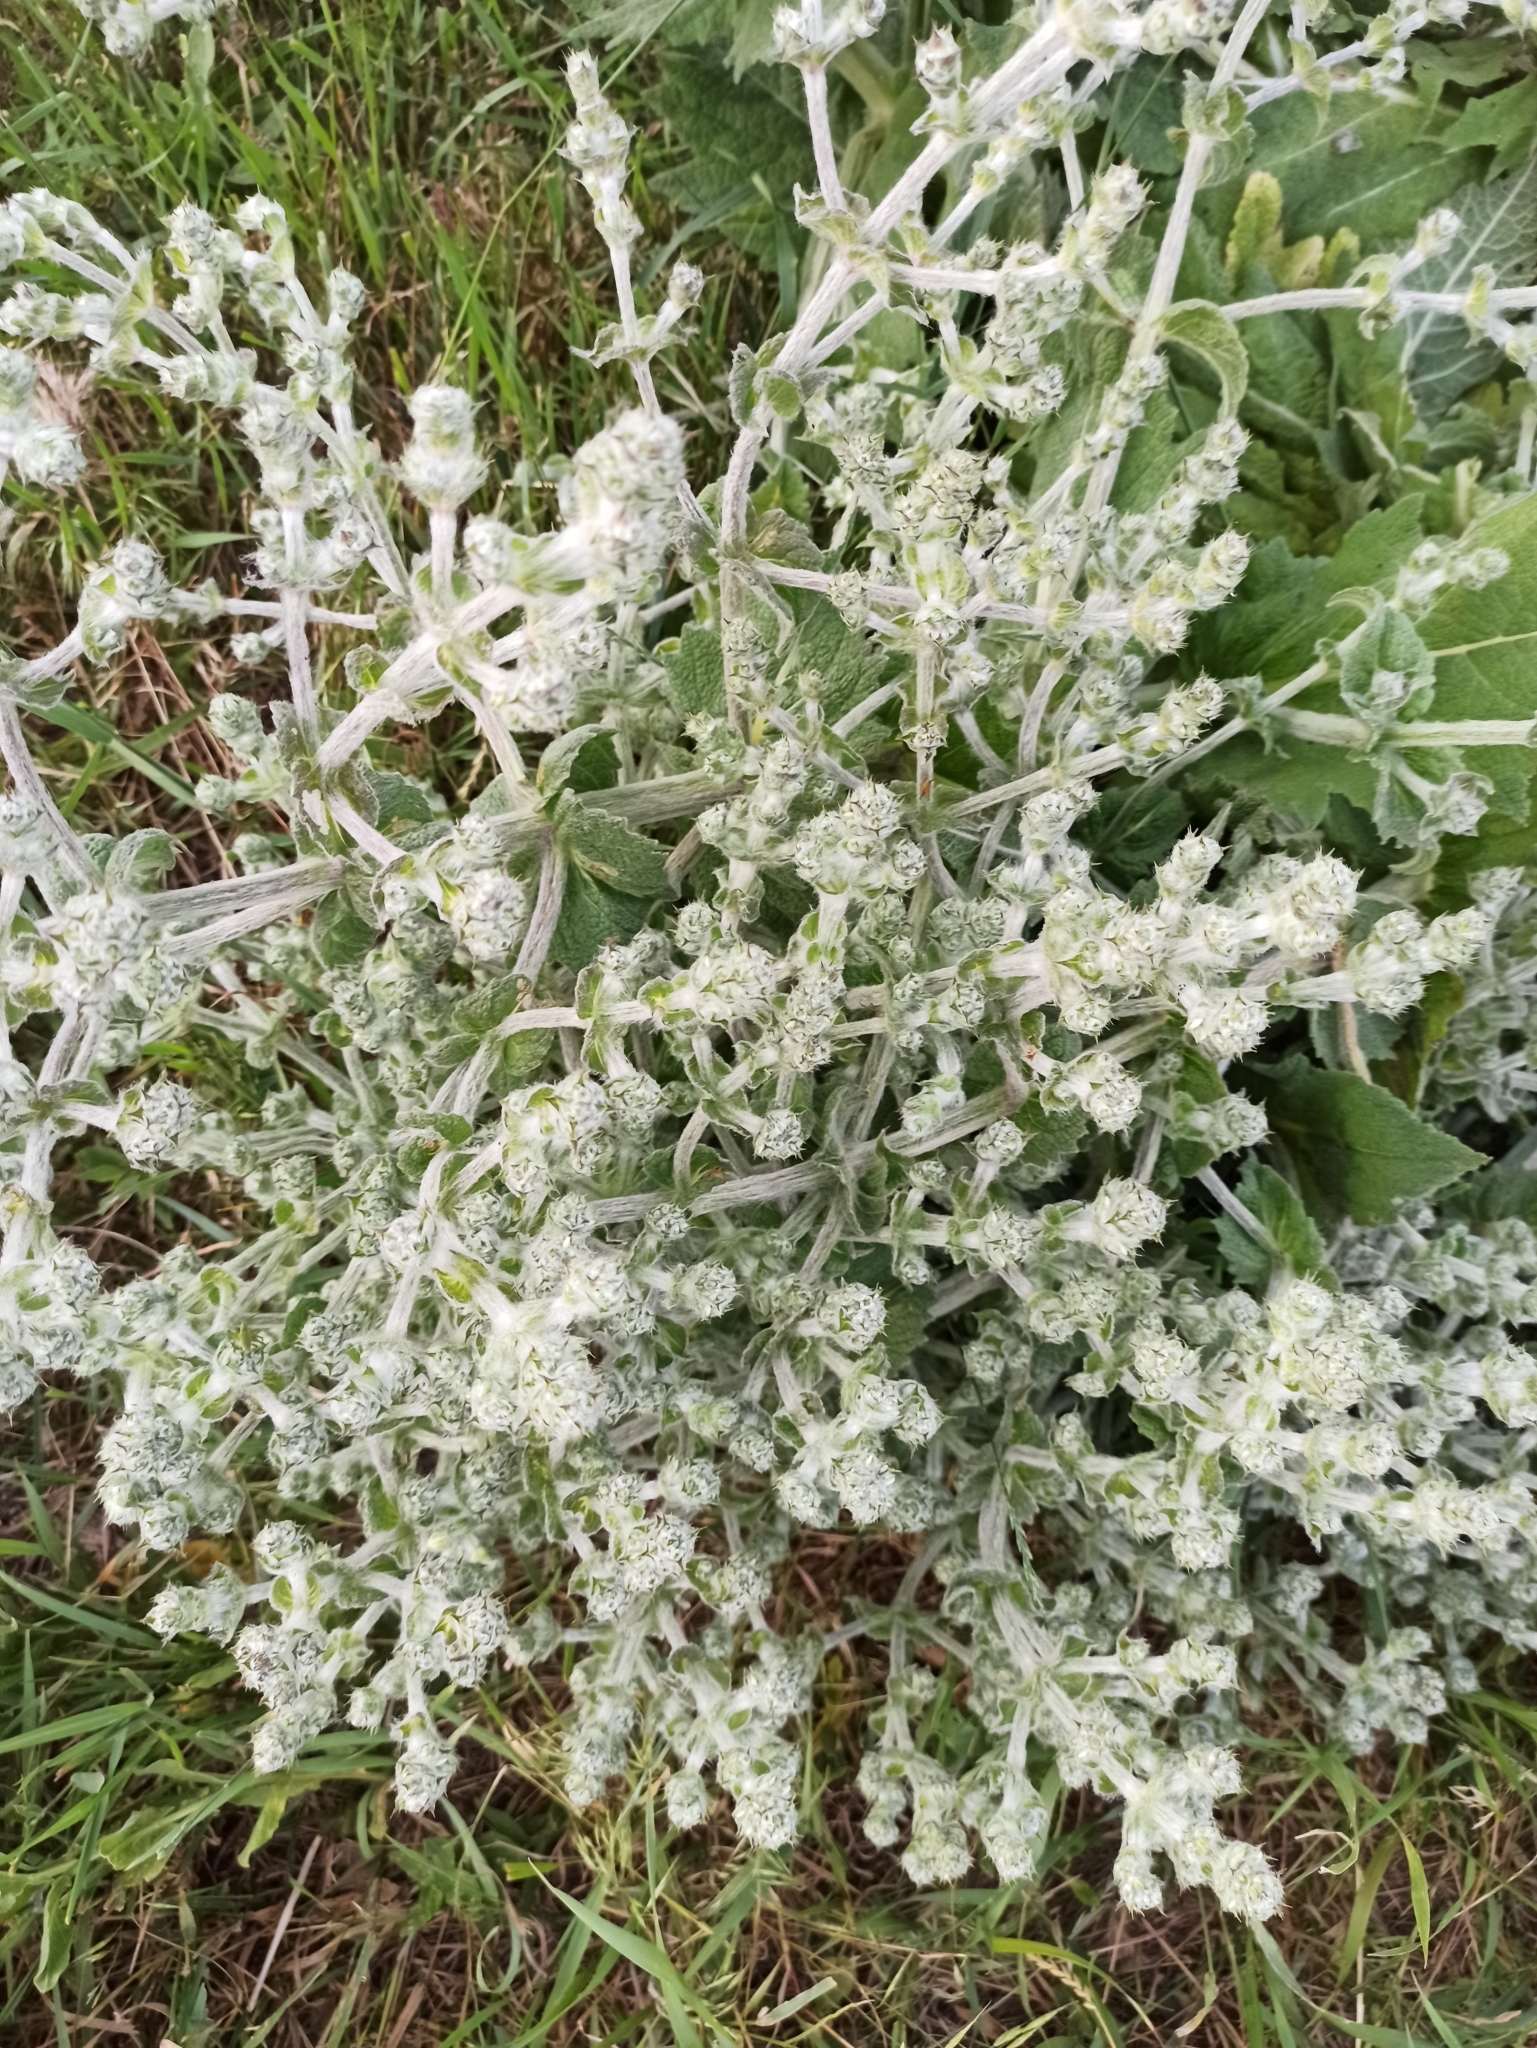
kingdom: Plantae
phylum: Tracheophyta
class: Magnoliopsida
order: Lamiales
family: Lamiaceae
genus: Salvia
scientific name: Salvia aethiopis
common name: Mediterranean sage
